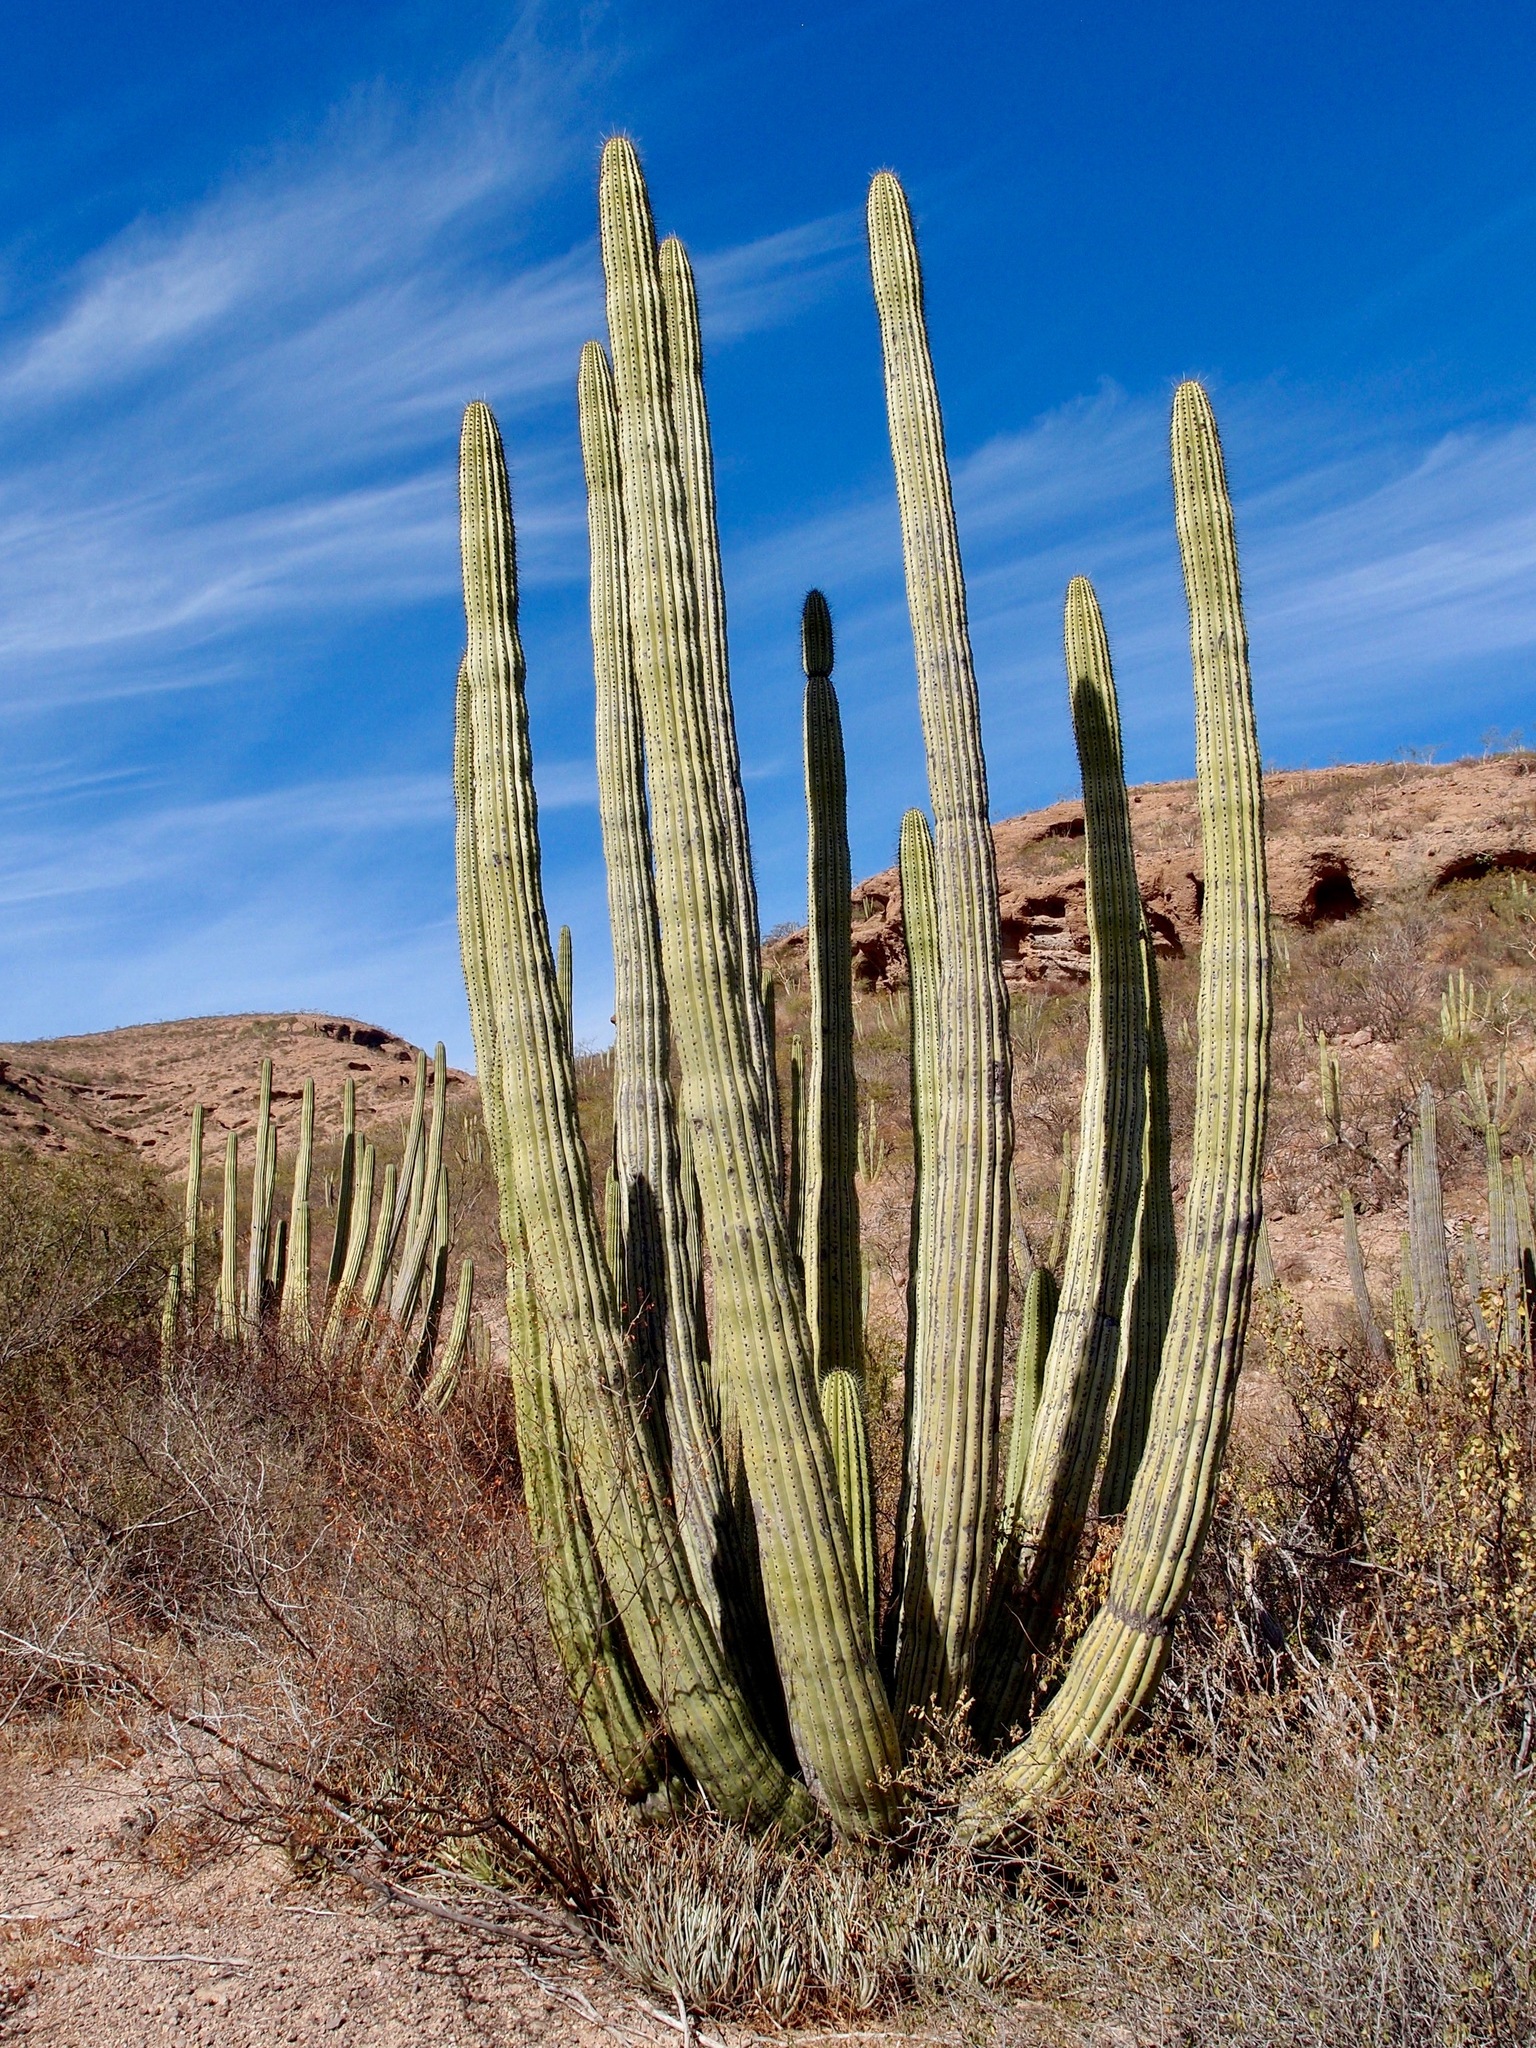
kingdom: Plantae
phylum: Tracheophyta
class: Magnoliopsida
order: Caryophyllales
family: Cactaceae
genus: Stenocereus
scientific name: Stenocereus thurberi
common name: Organ pipe cactus
